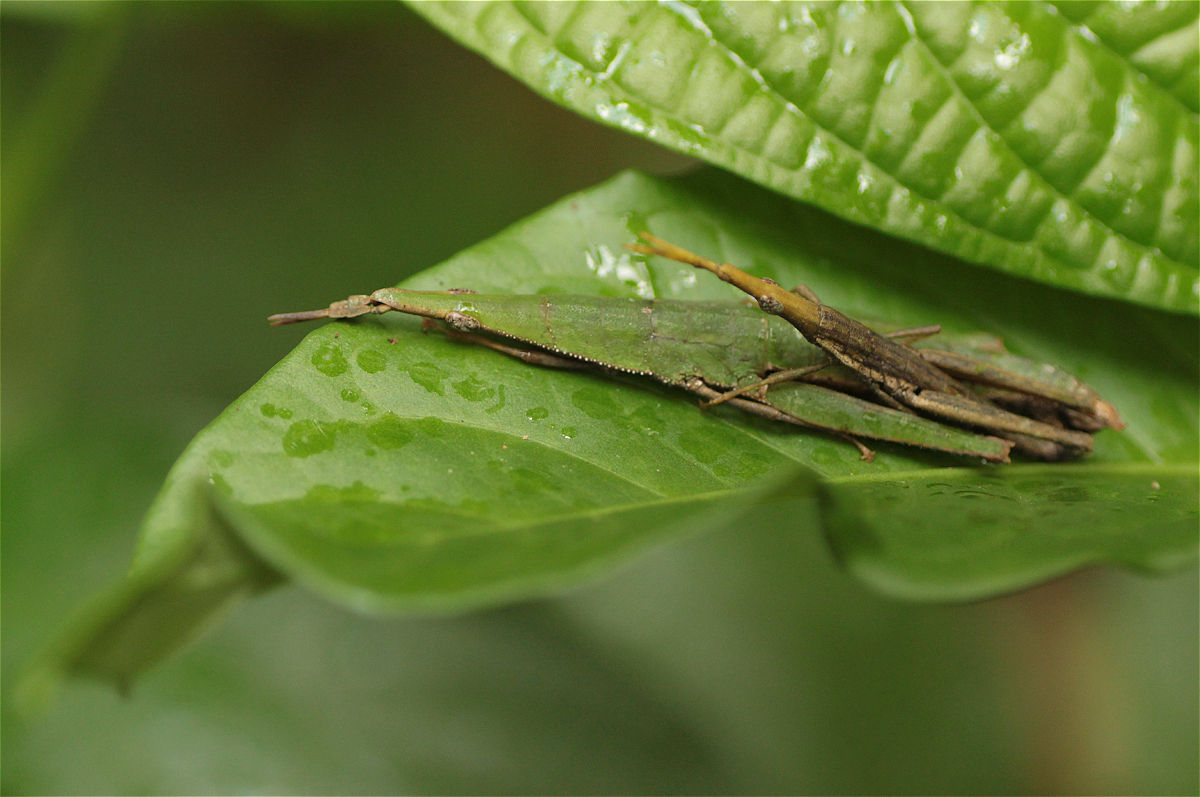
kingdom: Animalia
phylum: Arthropoda
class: Insecta
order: Orthoptera
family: Pyrgomorphidae
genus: Omura
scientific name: Omura congrua
